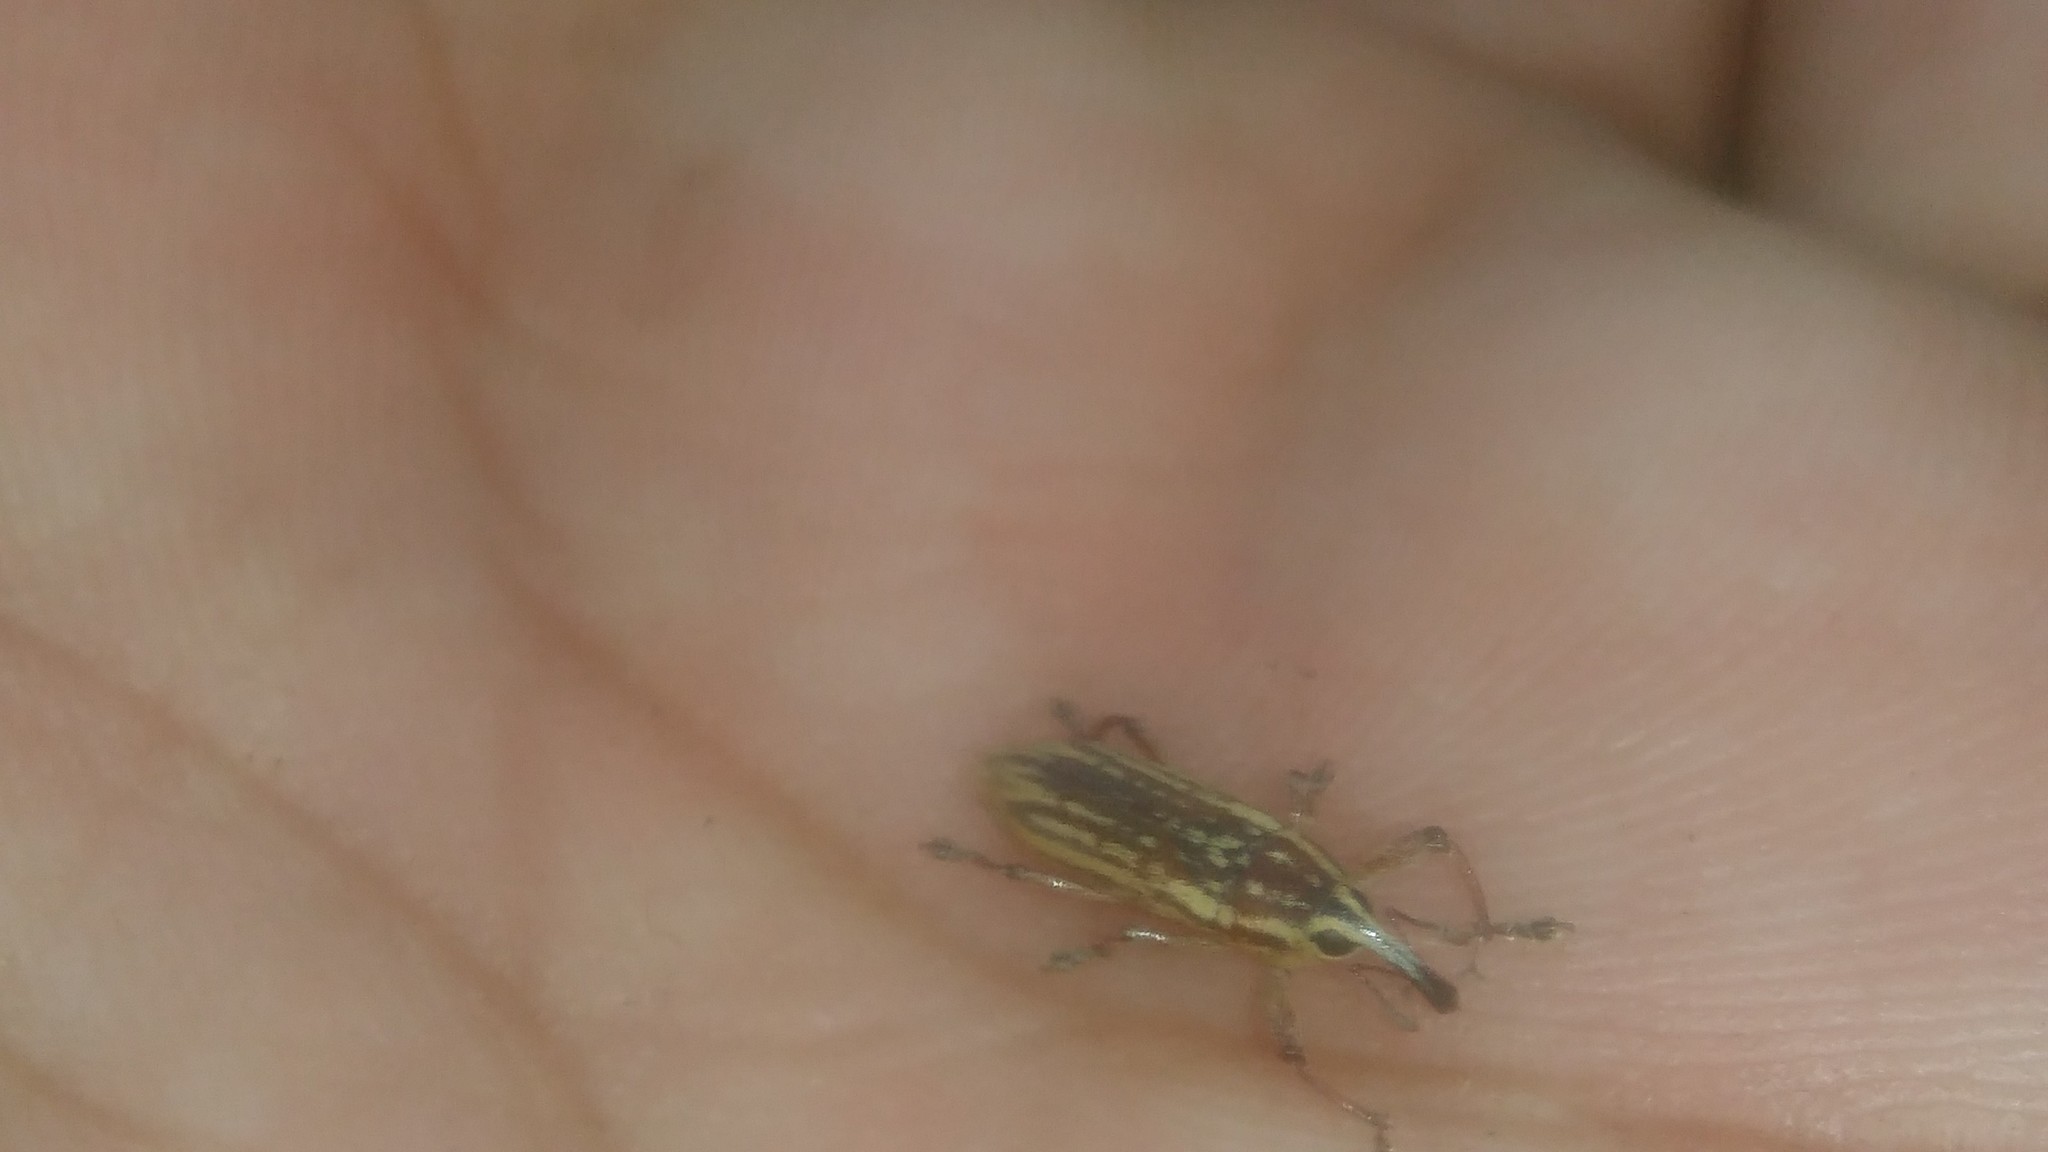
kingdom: Animalia
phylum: Arthropoda
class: Insecta
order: Coleoptera
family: Curculionidae
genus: Lixodes
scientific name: Lixodes taeniatus
